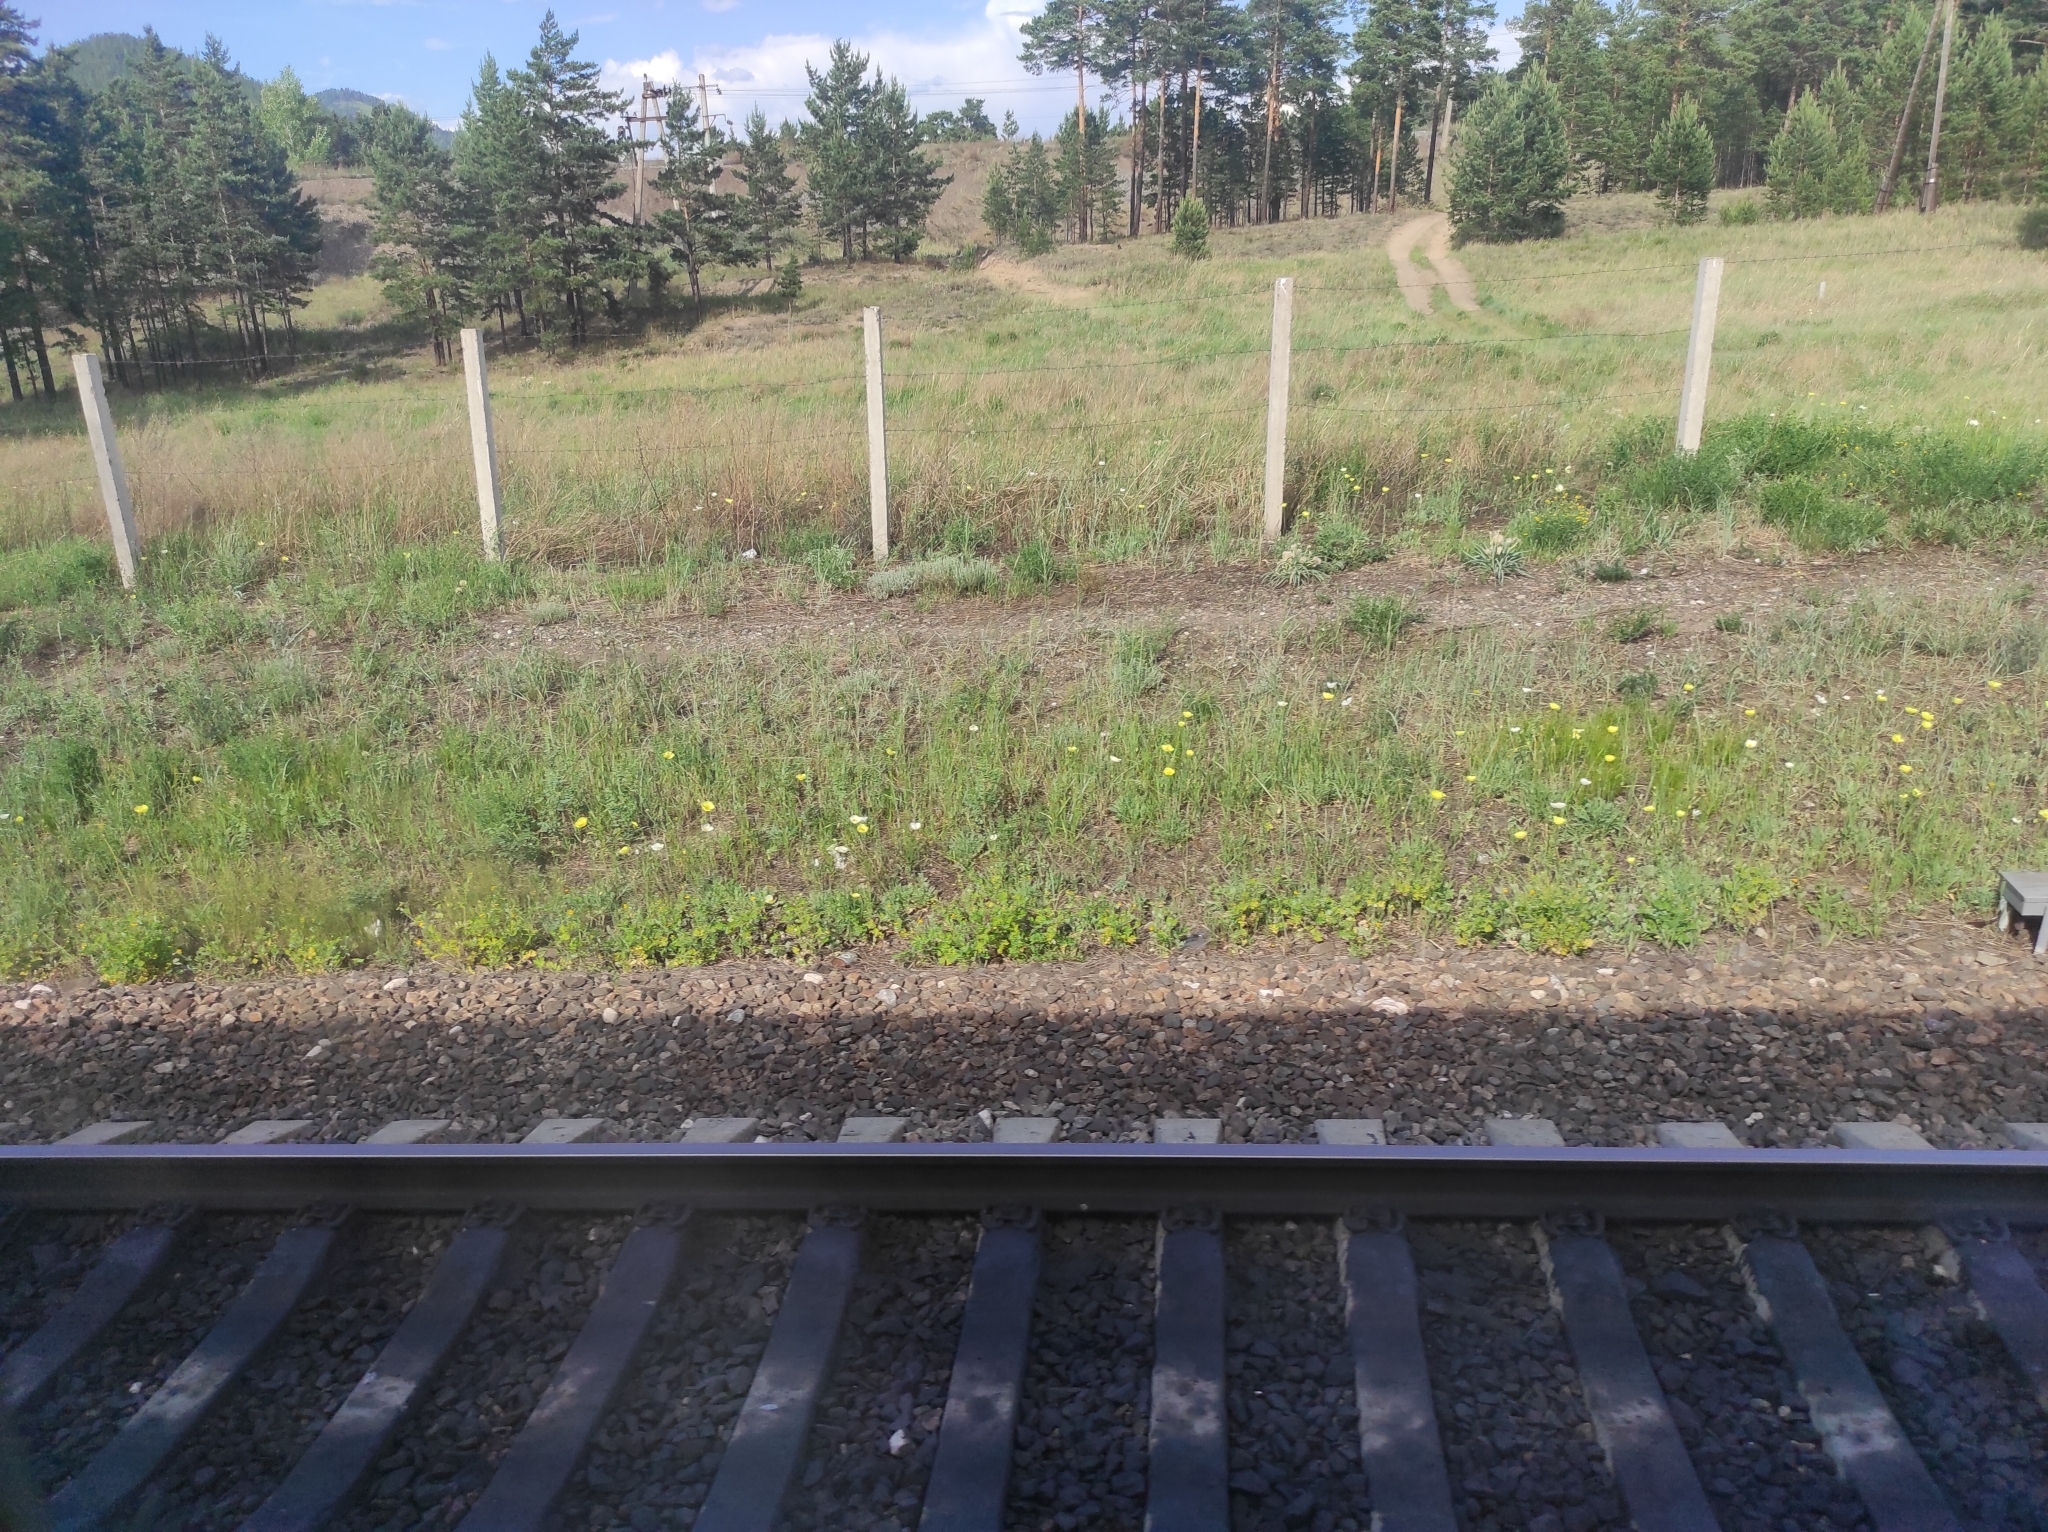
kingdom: Plantae
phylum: Tracheophyta
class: Pinopsida
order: Pinales
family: Pinaceae
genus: Pinus
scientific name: Pinus sylvestris
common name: Scots pine
